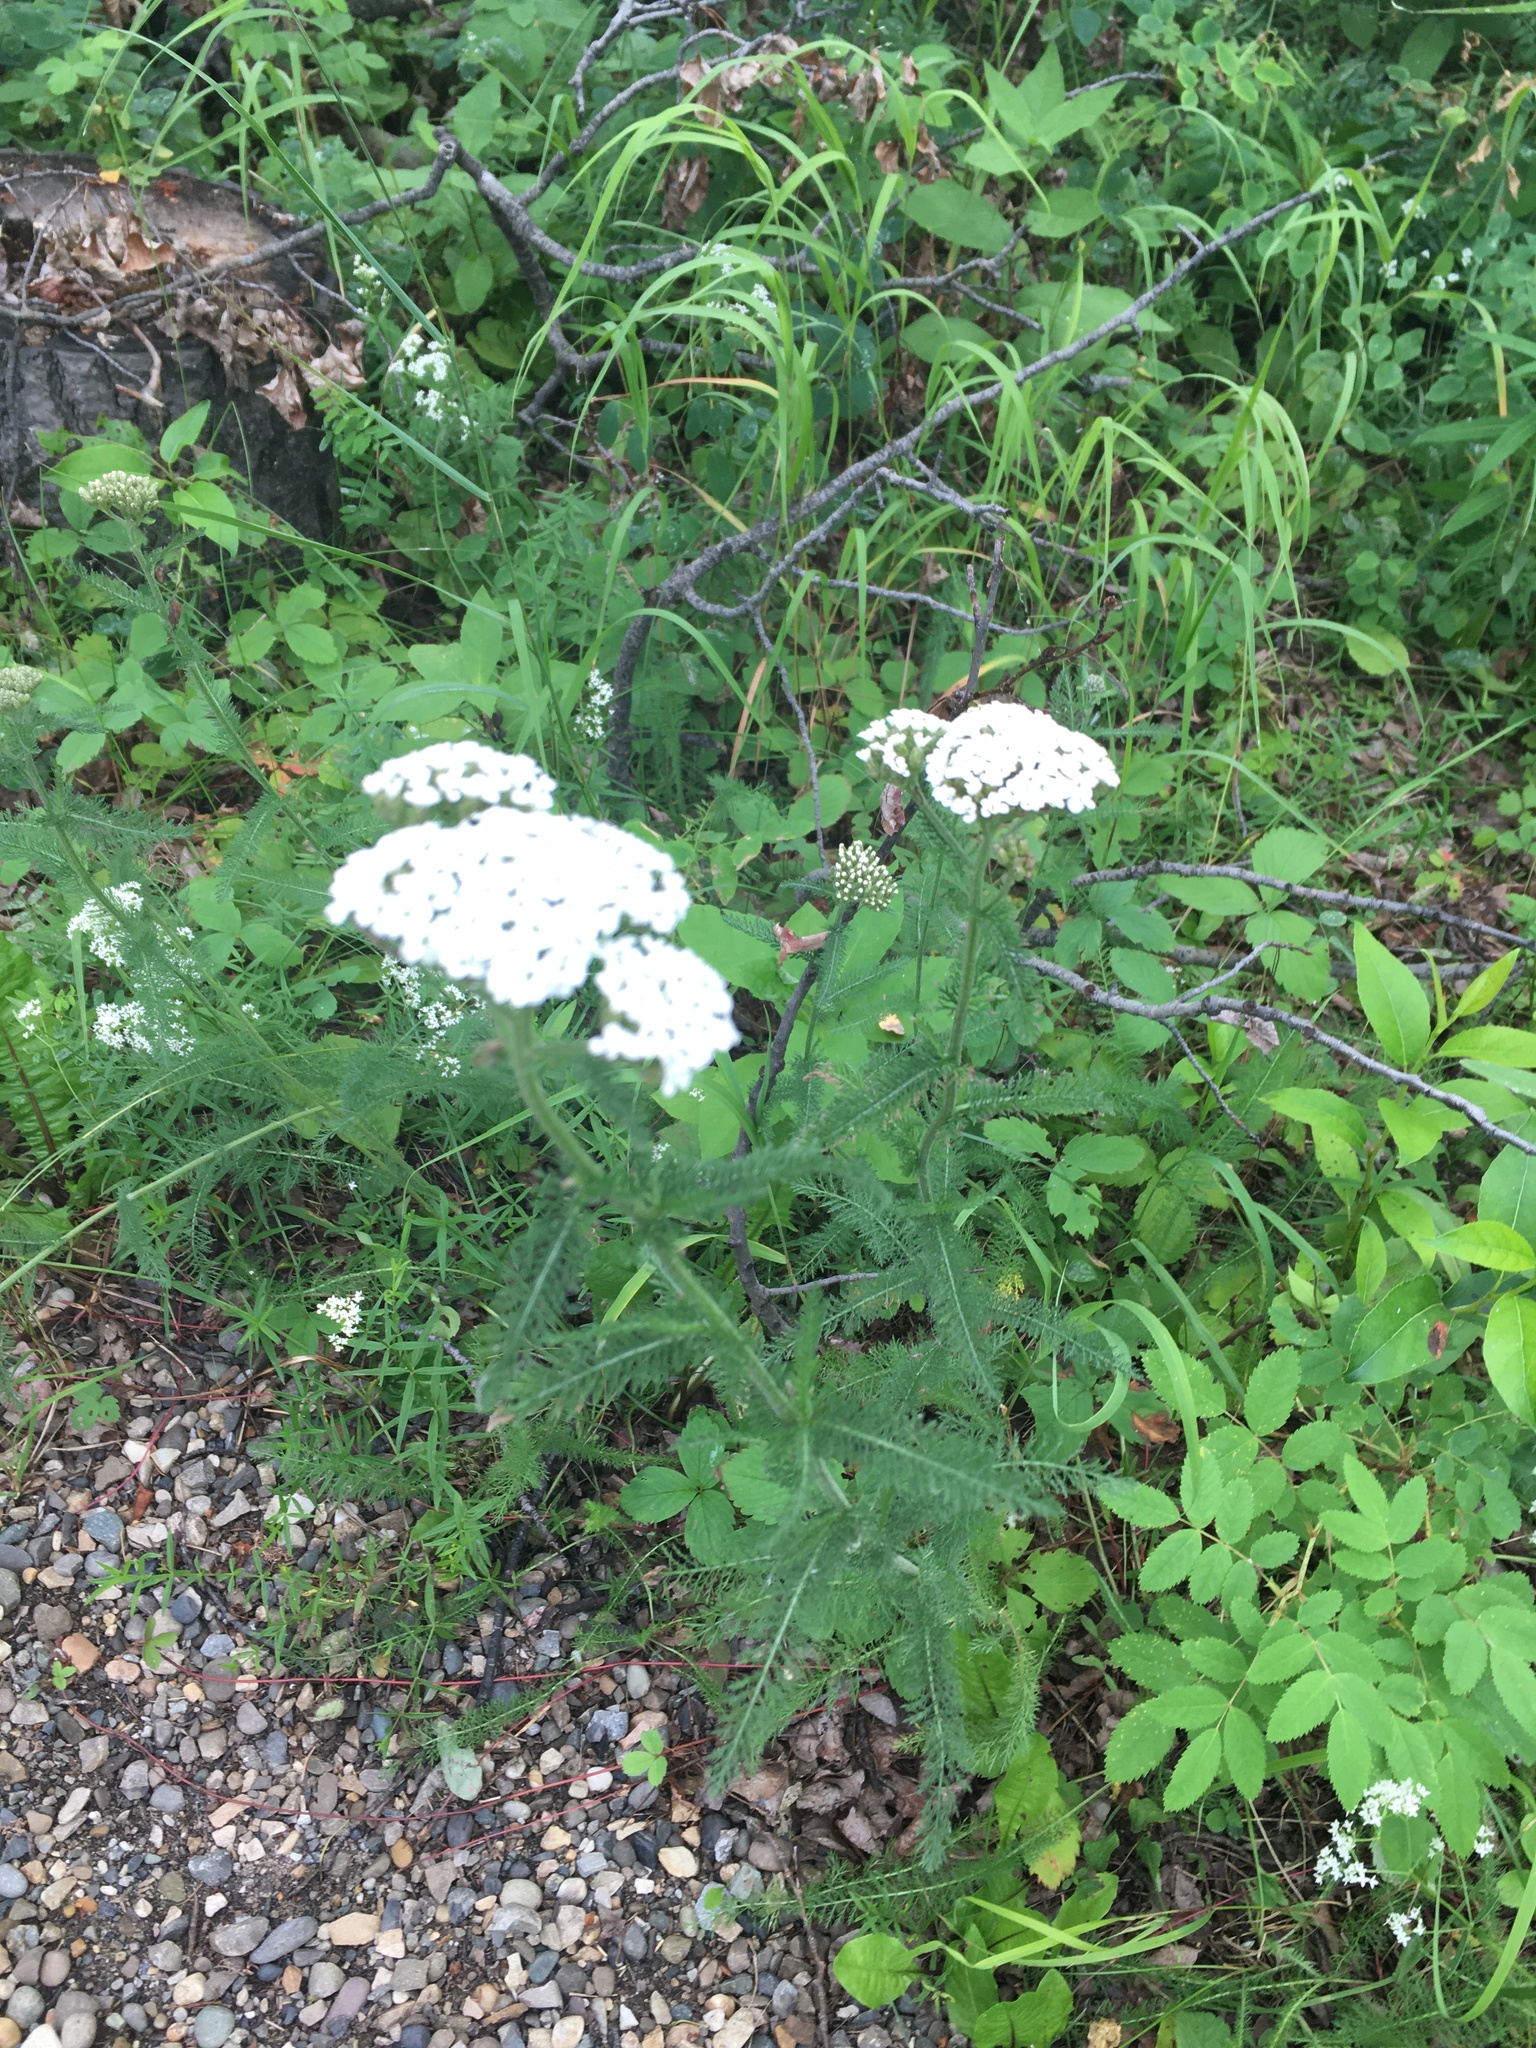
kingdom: Plantae
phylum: Tracheophyta
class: Magnoliopsida
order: Rosales
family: Rosaceae
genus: Spiraea
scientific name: Spiraea lucida
